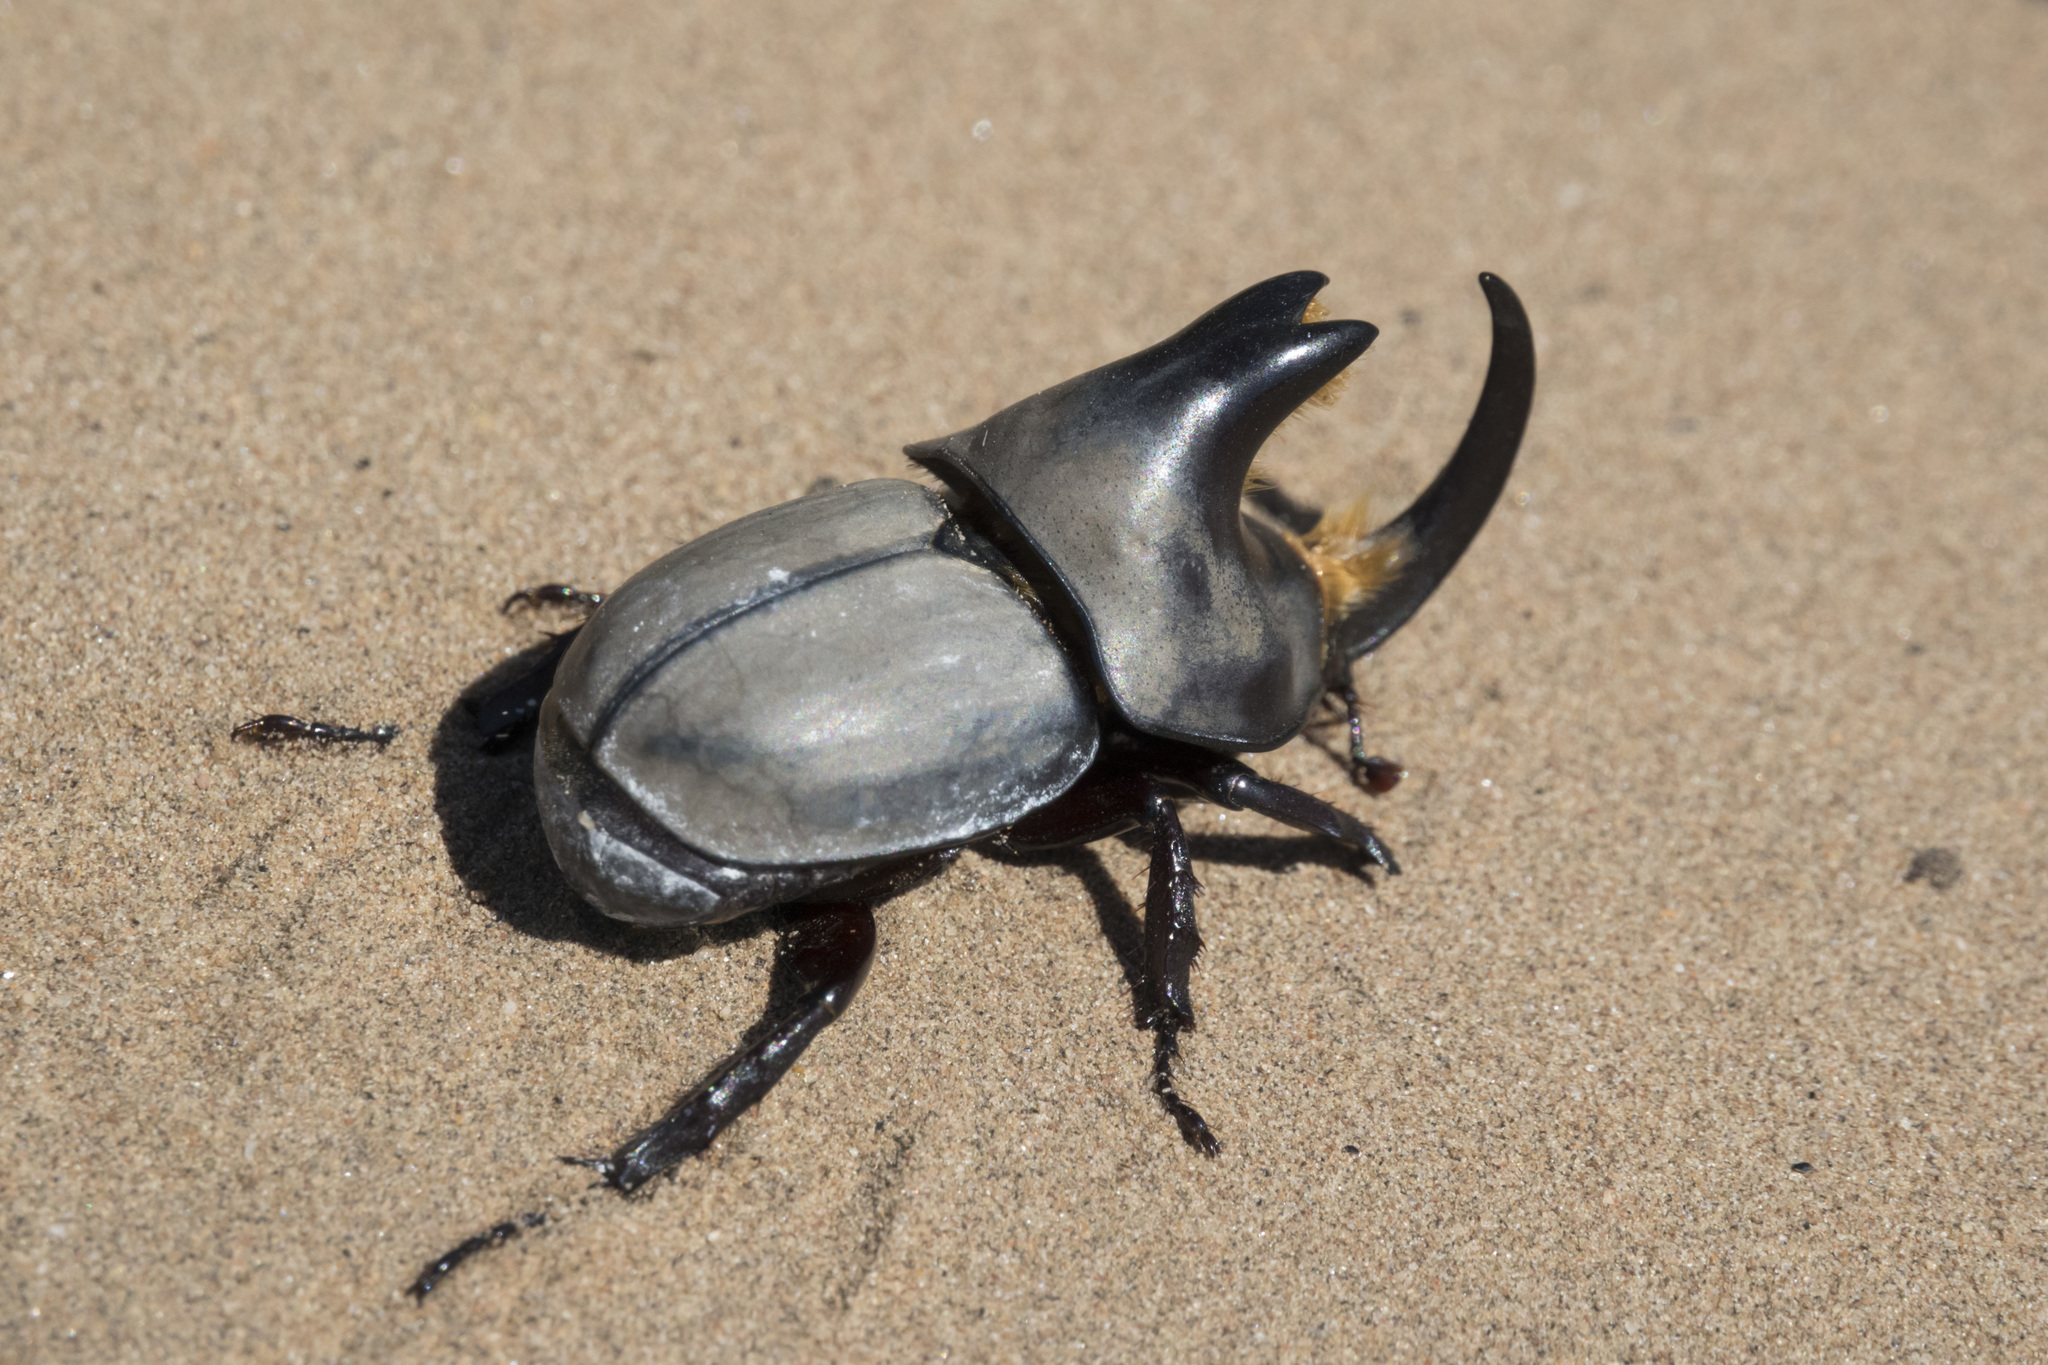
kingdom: Animalia
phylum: Arthropoda
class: Insecta
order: Coleoptera
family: Scarabaeidae
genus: Diloboderus
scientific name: Diloboderus abderus
